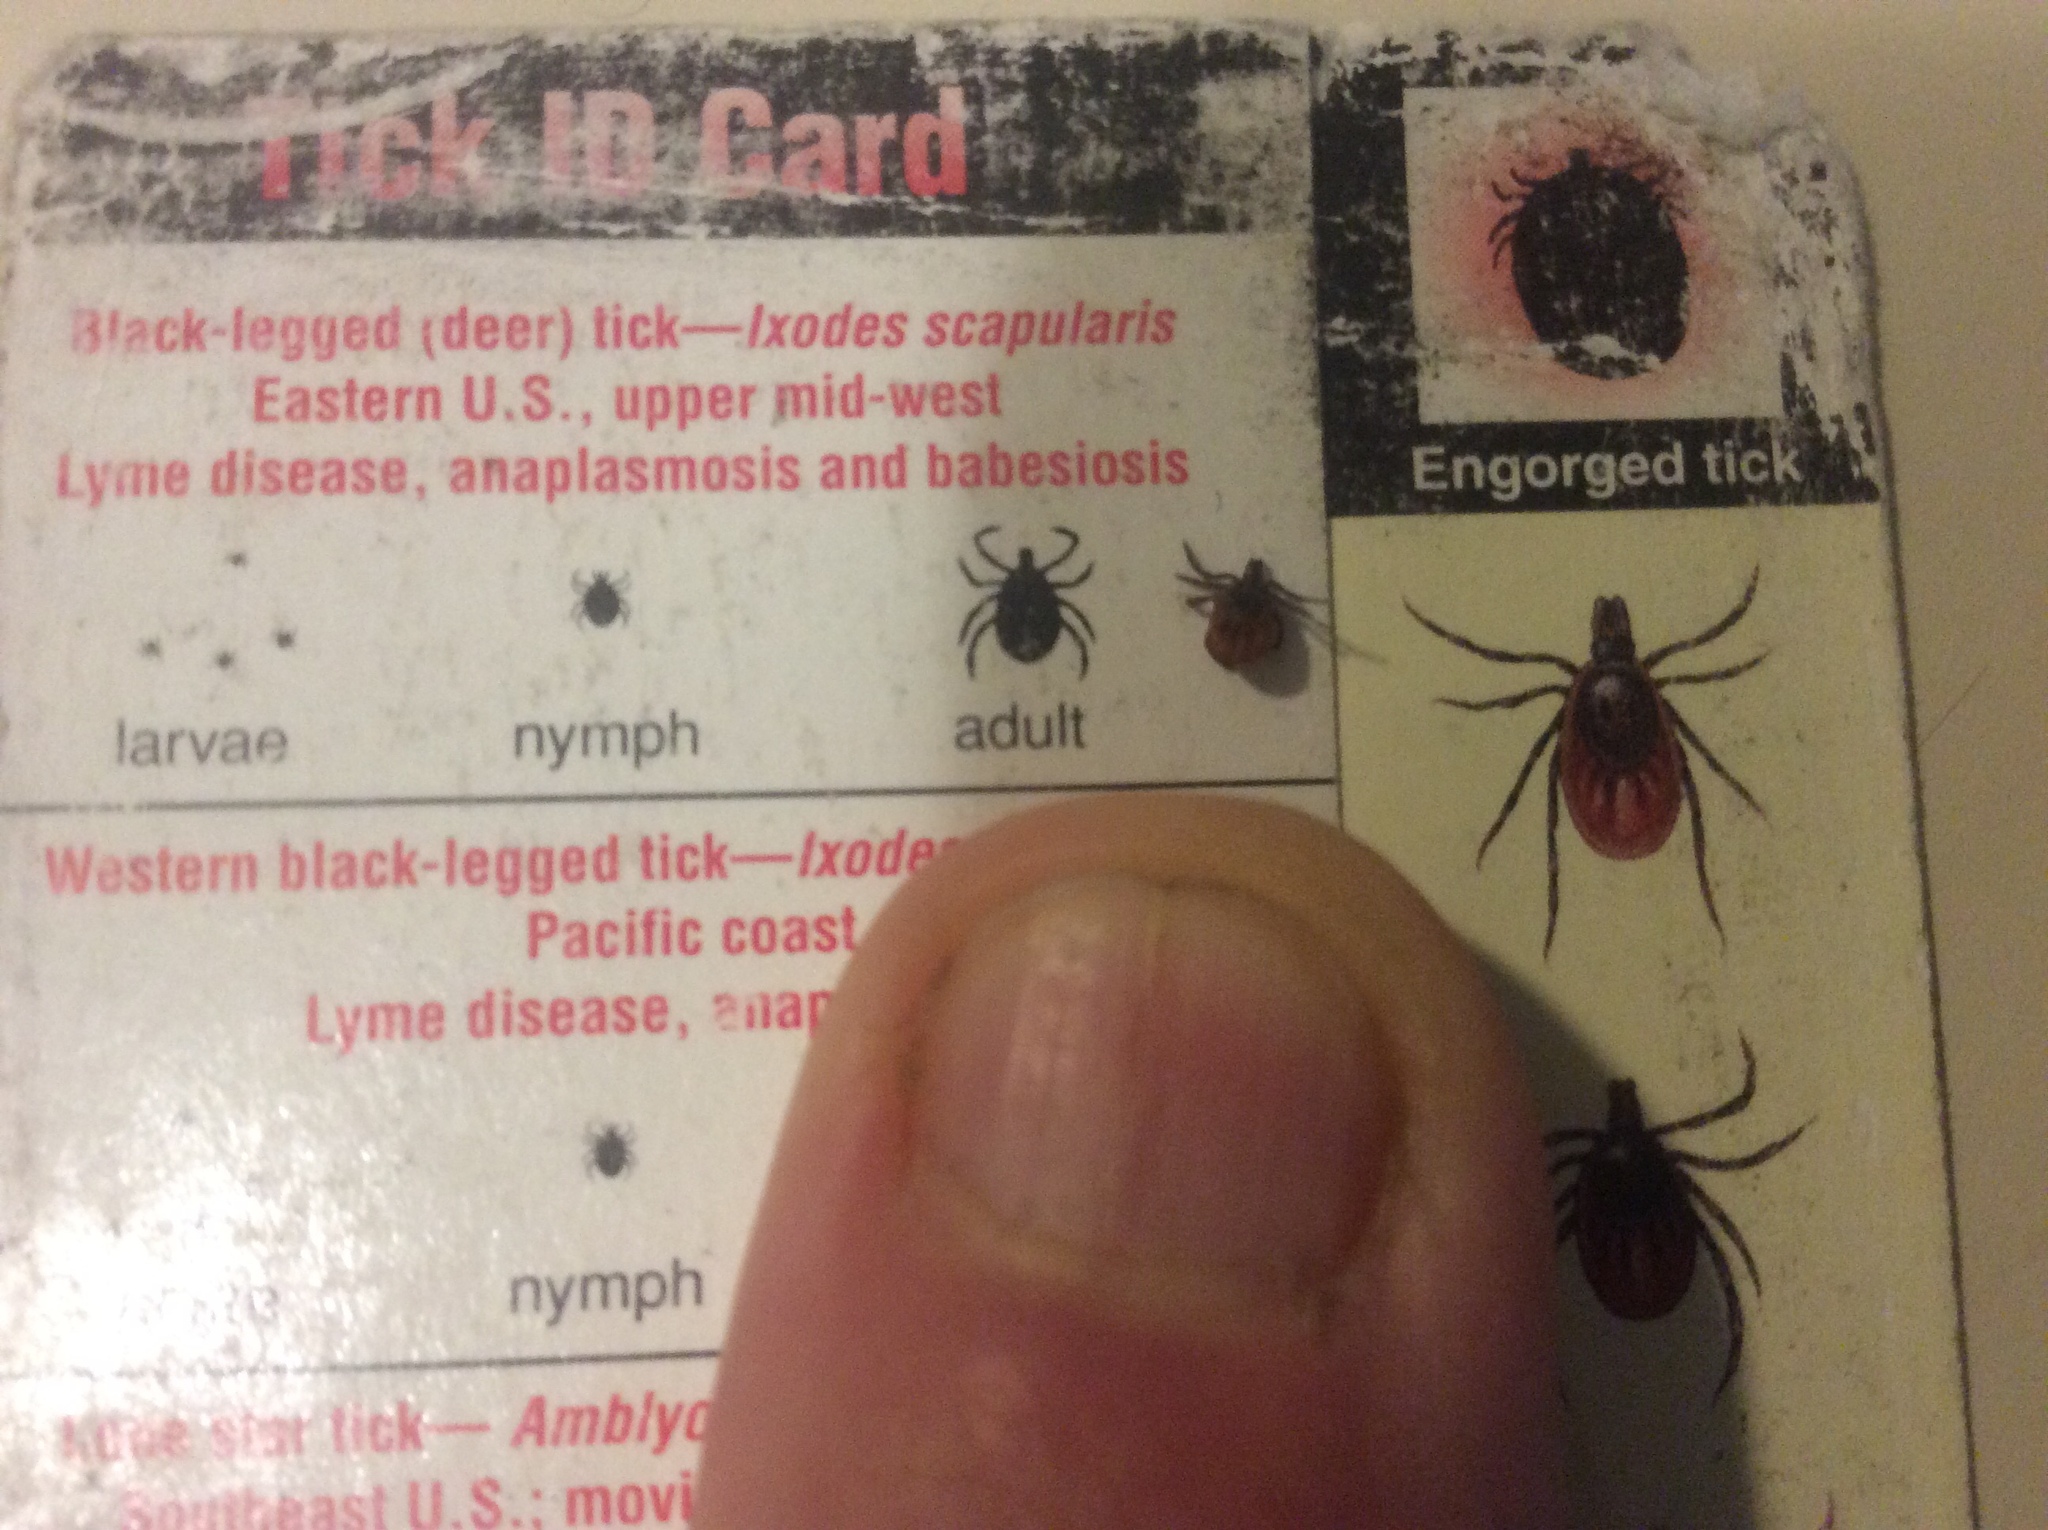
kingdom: Animalia
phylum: Arthropoda
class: Arachnida
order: Ixodida
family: Ixodidae
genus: Ixodes
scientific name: Ixodes scapularis
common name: Black legged tick
